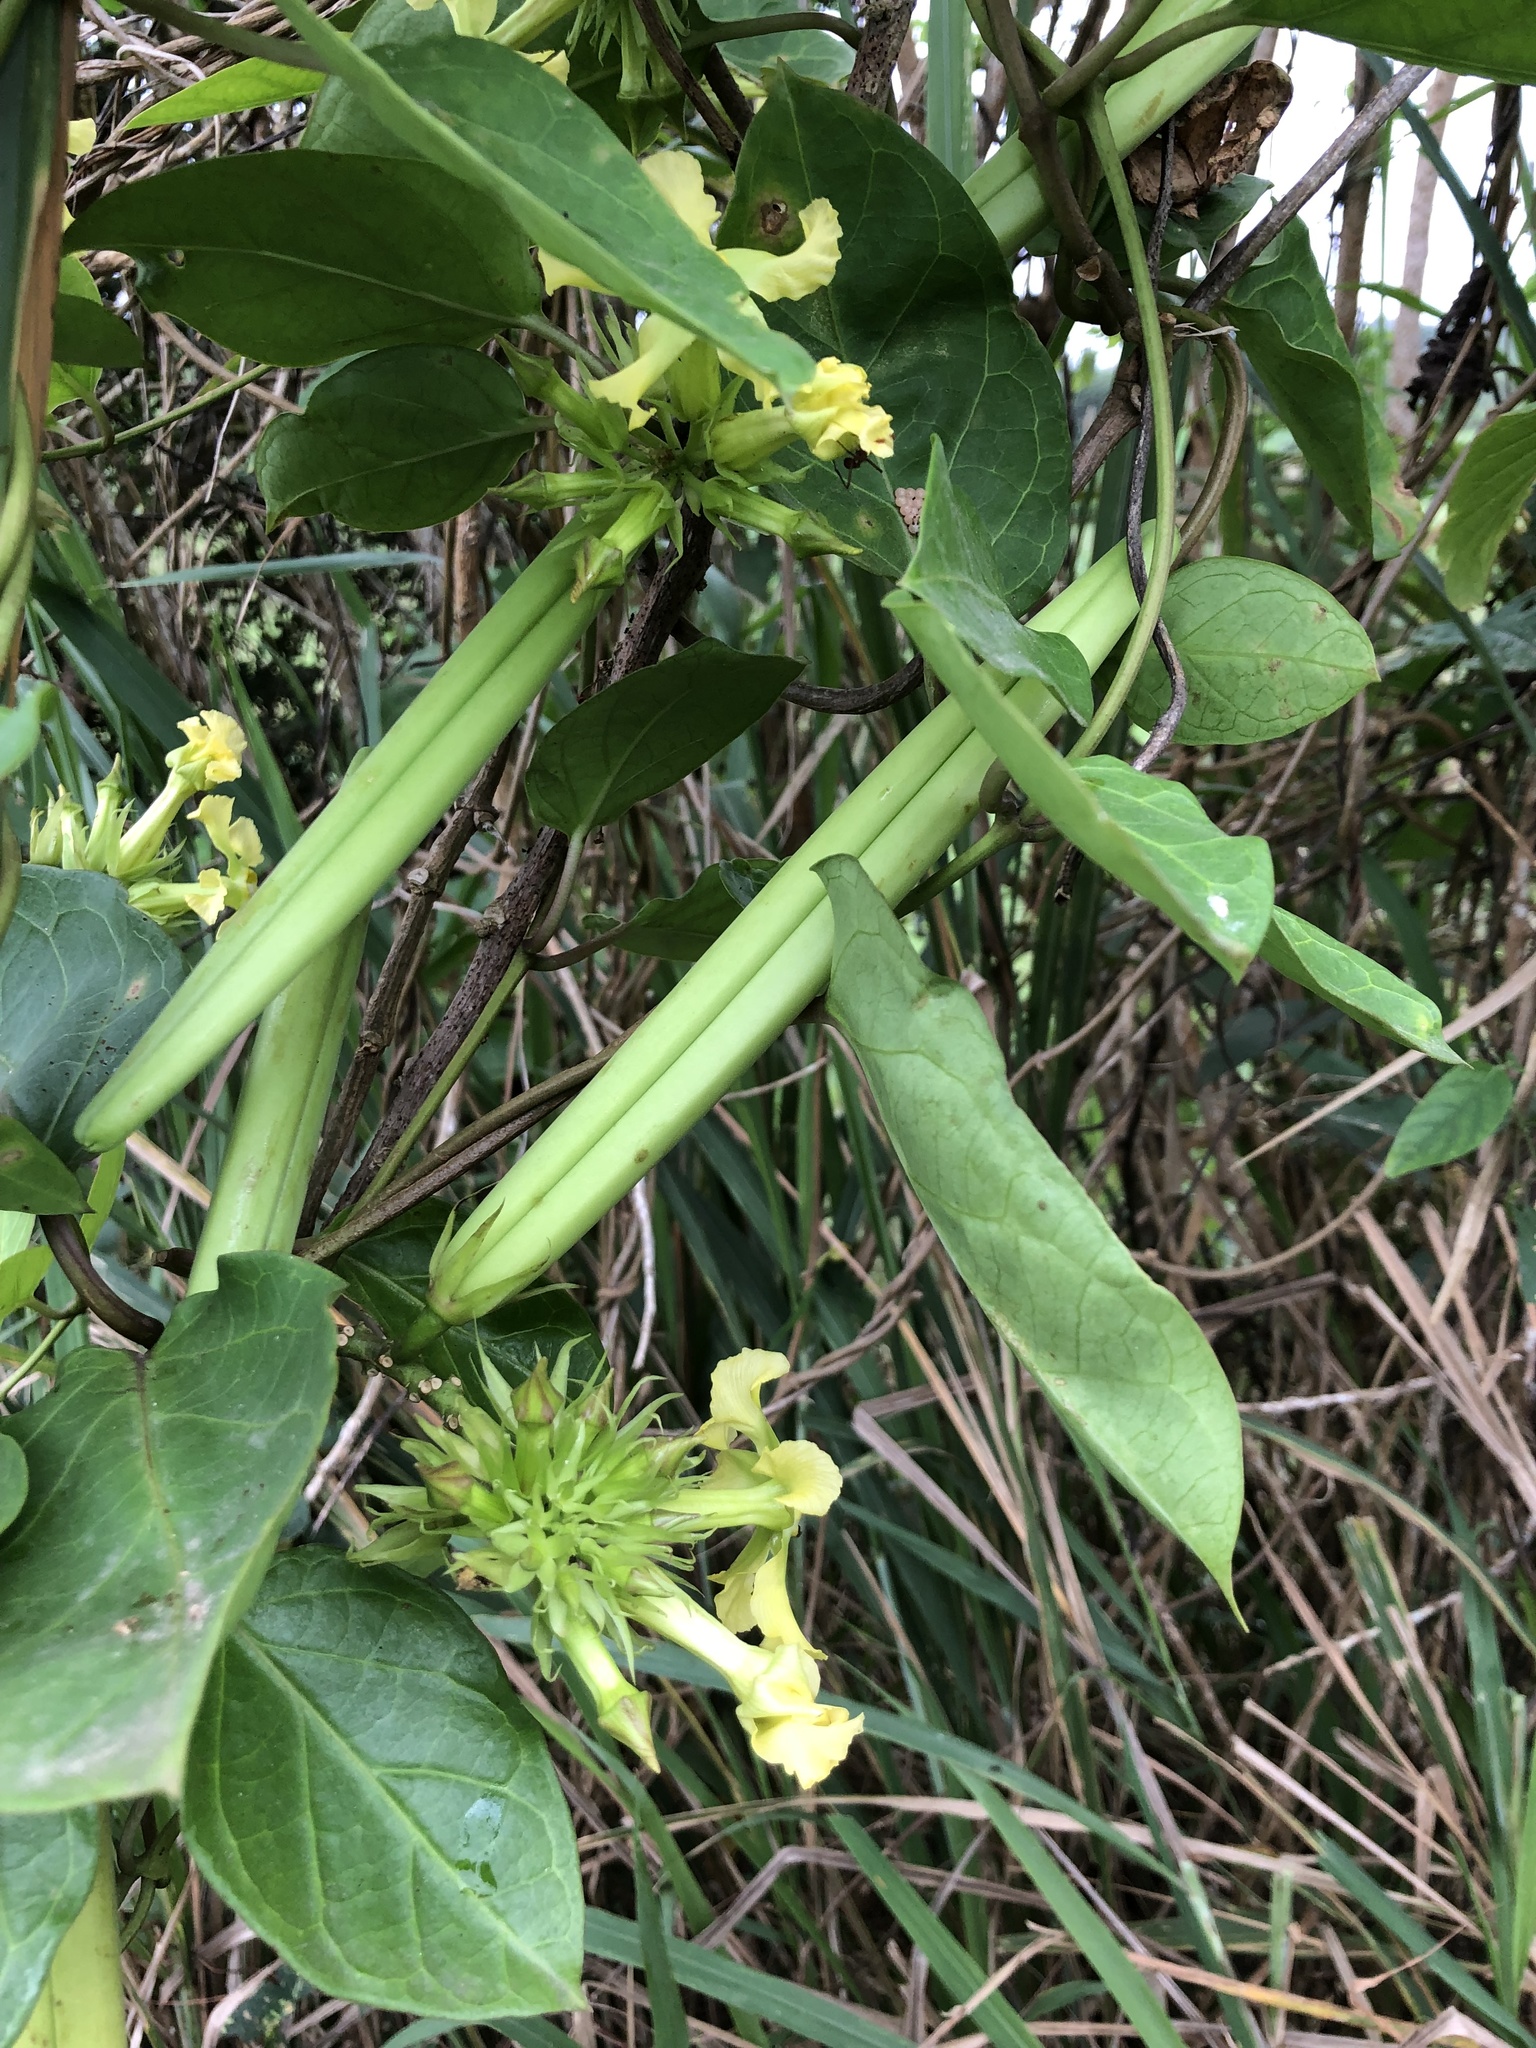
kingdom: Plantae
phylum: Tracheophyta
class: Magnoliopsida
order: Gentianales
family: Apocynaceae
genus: Prestonia
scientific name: Prestonia mollis
